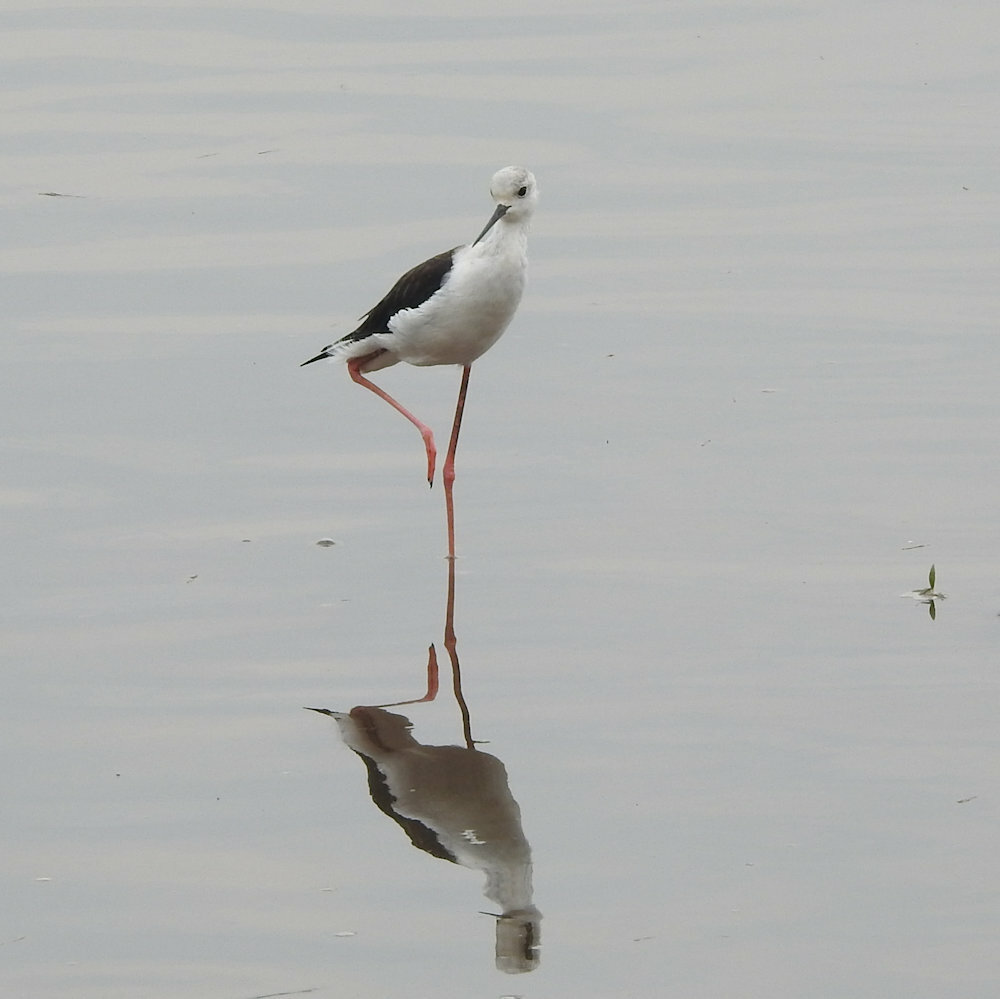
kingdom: Animalia
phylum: Chordata
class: Aves
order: Charadriiformes
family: Recurvirostridae
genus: Himantopus
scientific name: Himantopus himantopus
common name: Black-winged stilt
